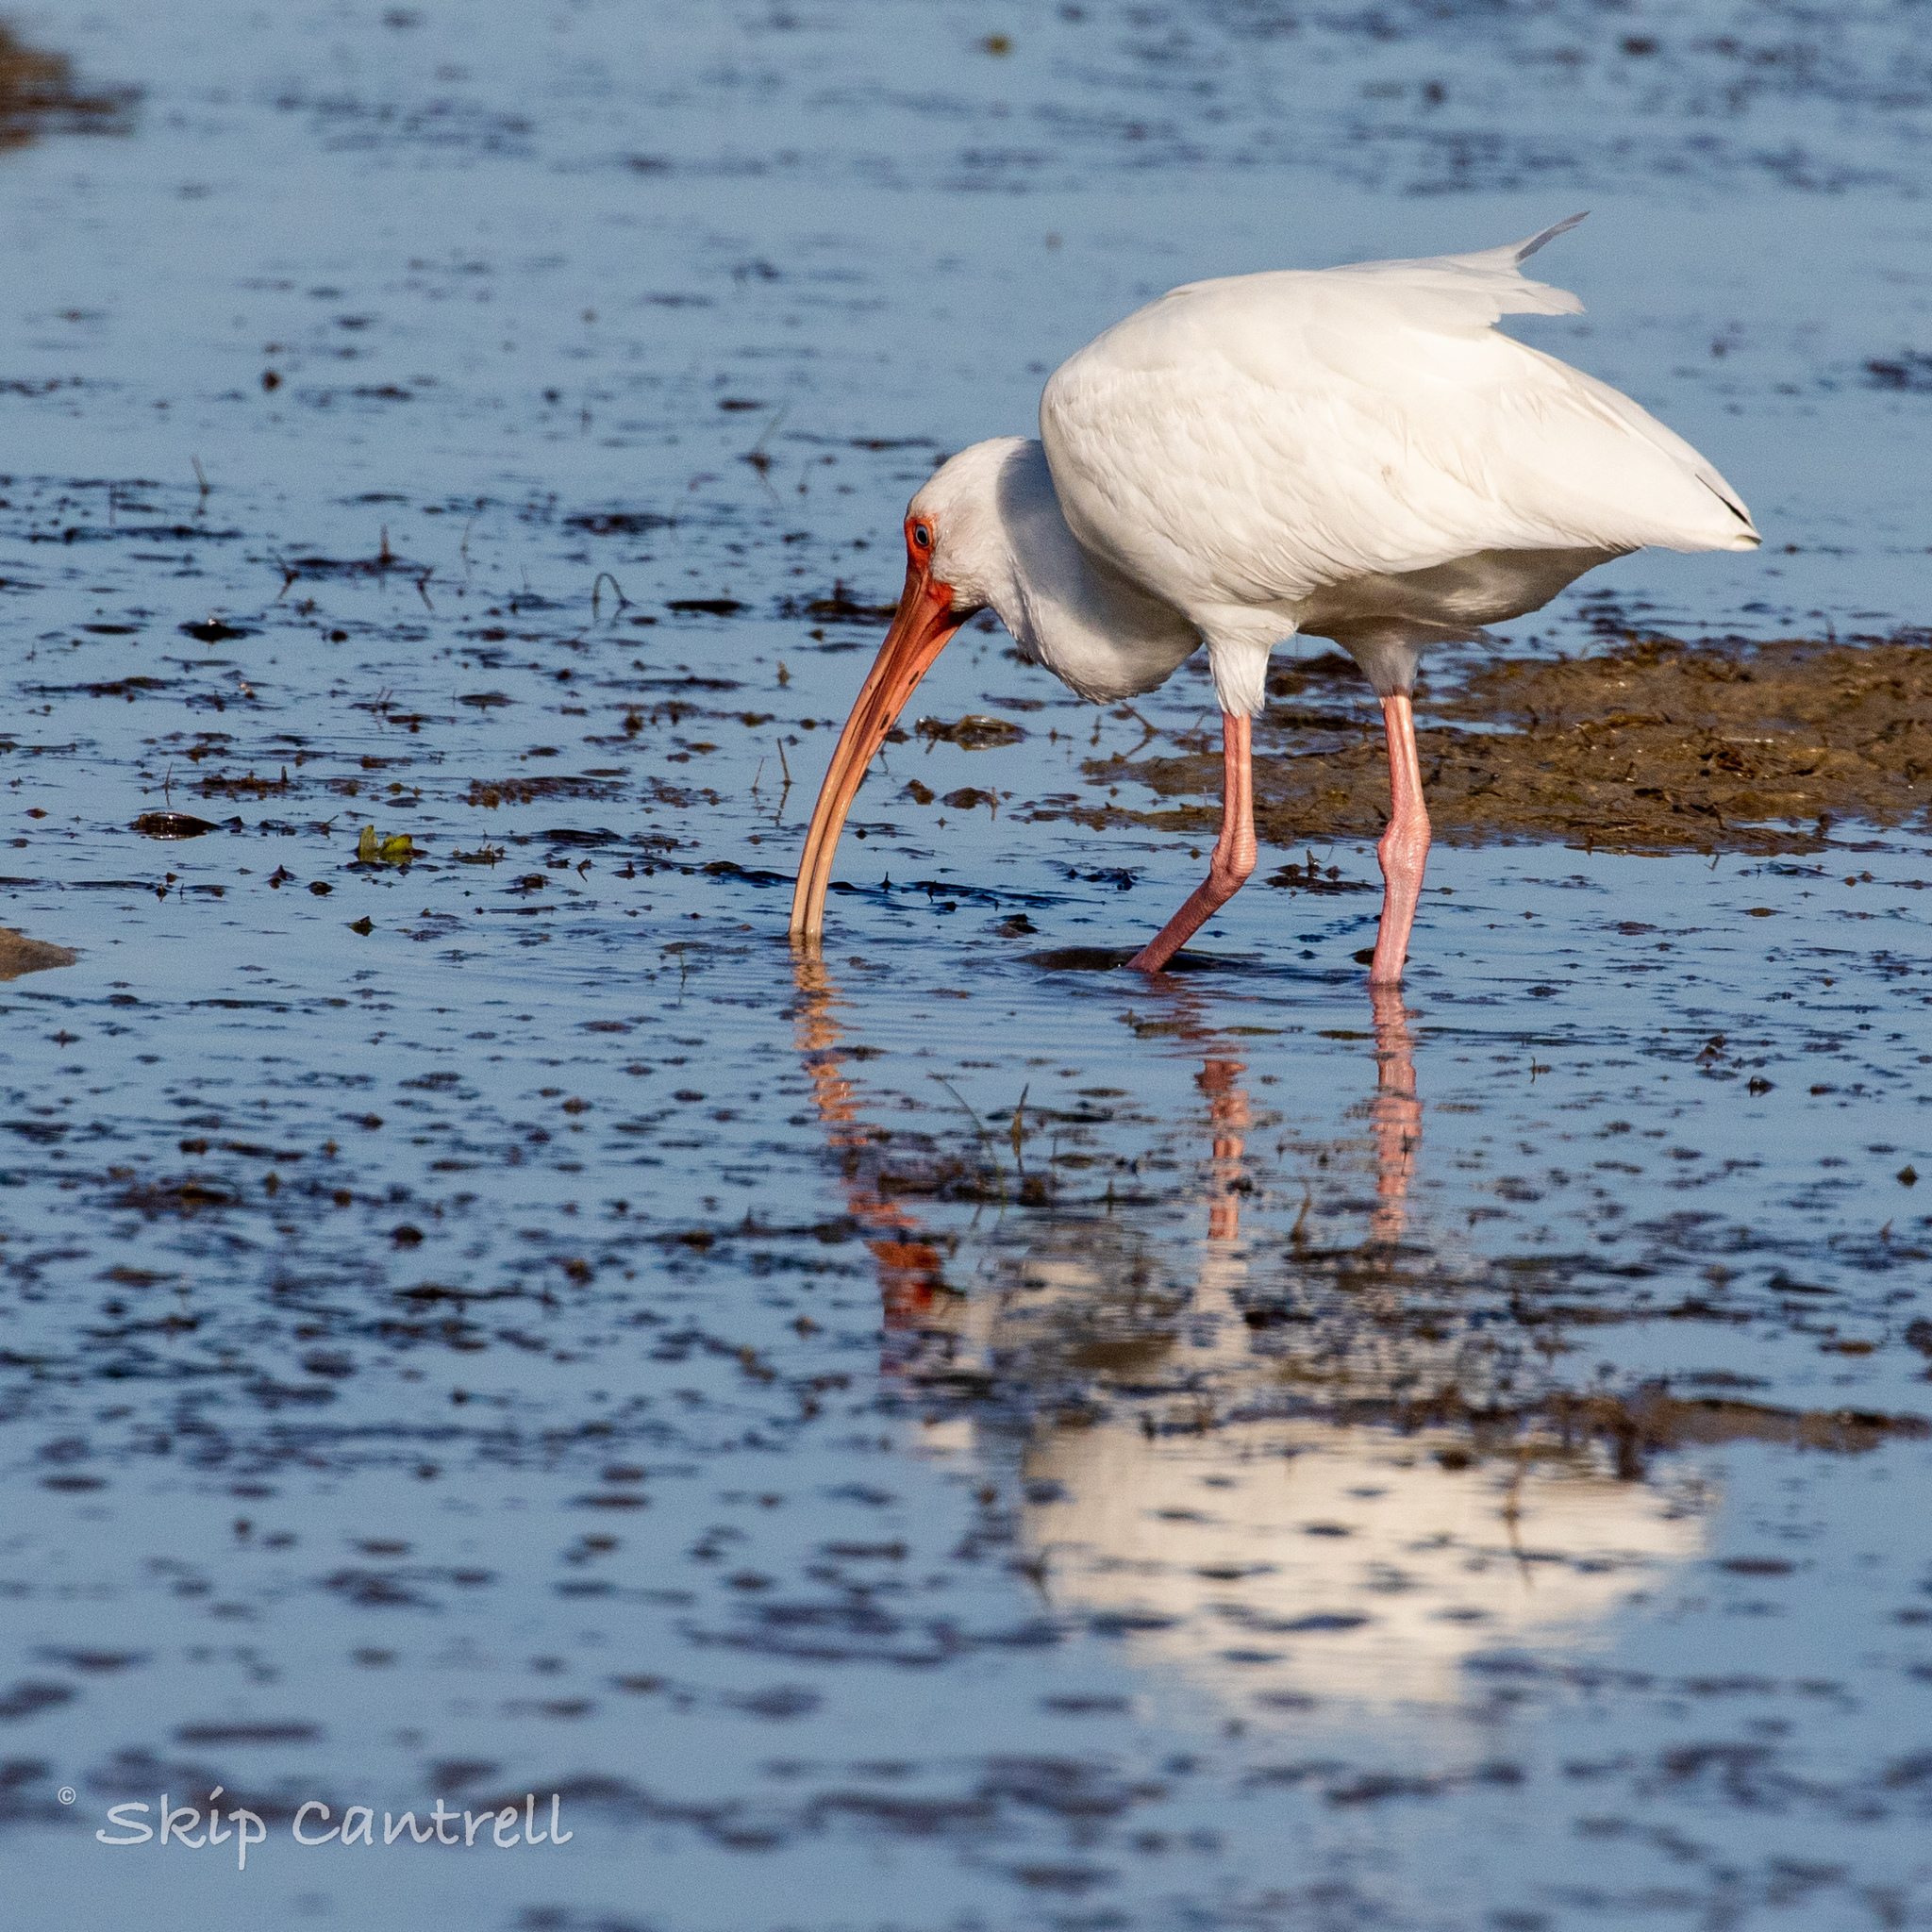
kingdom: Animalia
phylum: Chordata
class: Aves
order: Pelecaniformes
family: Threskiornithidae
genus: Eudocimus
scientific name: Eudocimus albus
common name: White ibis
